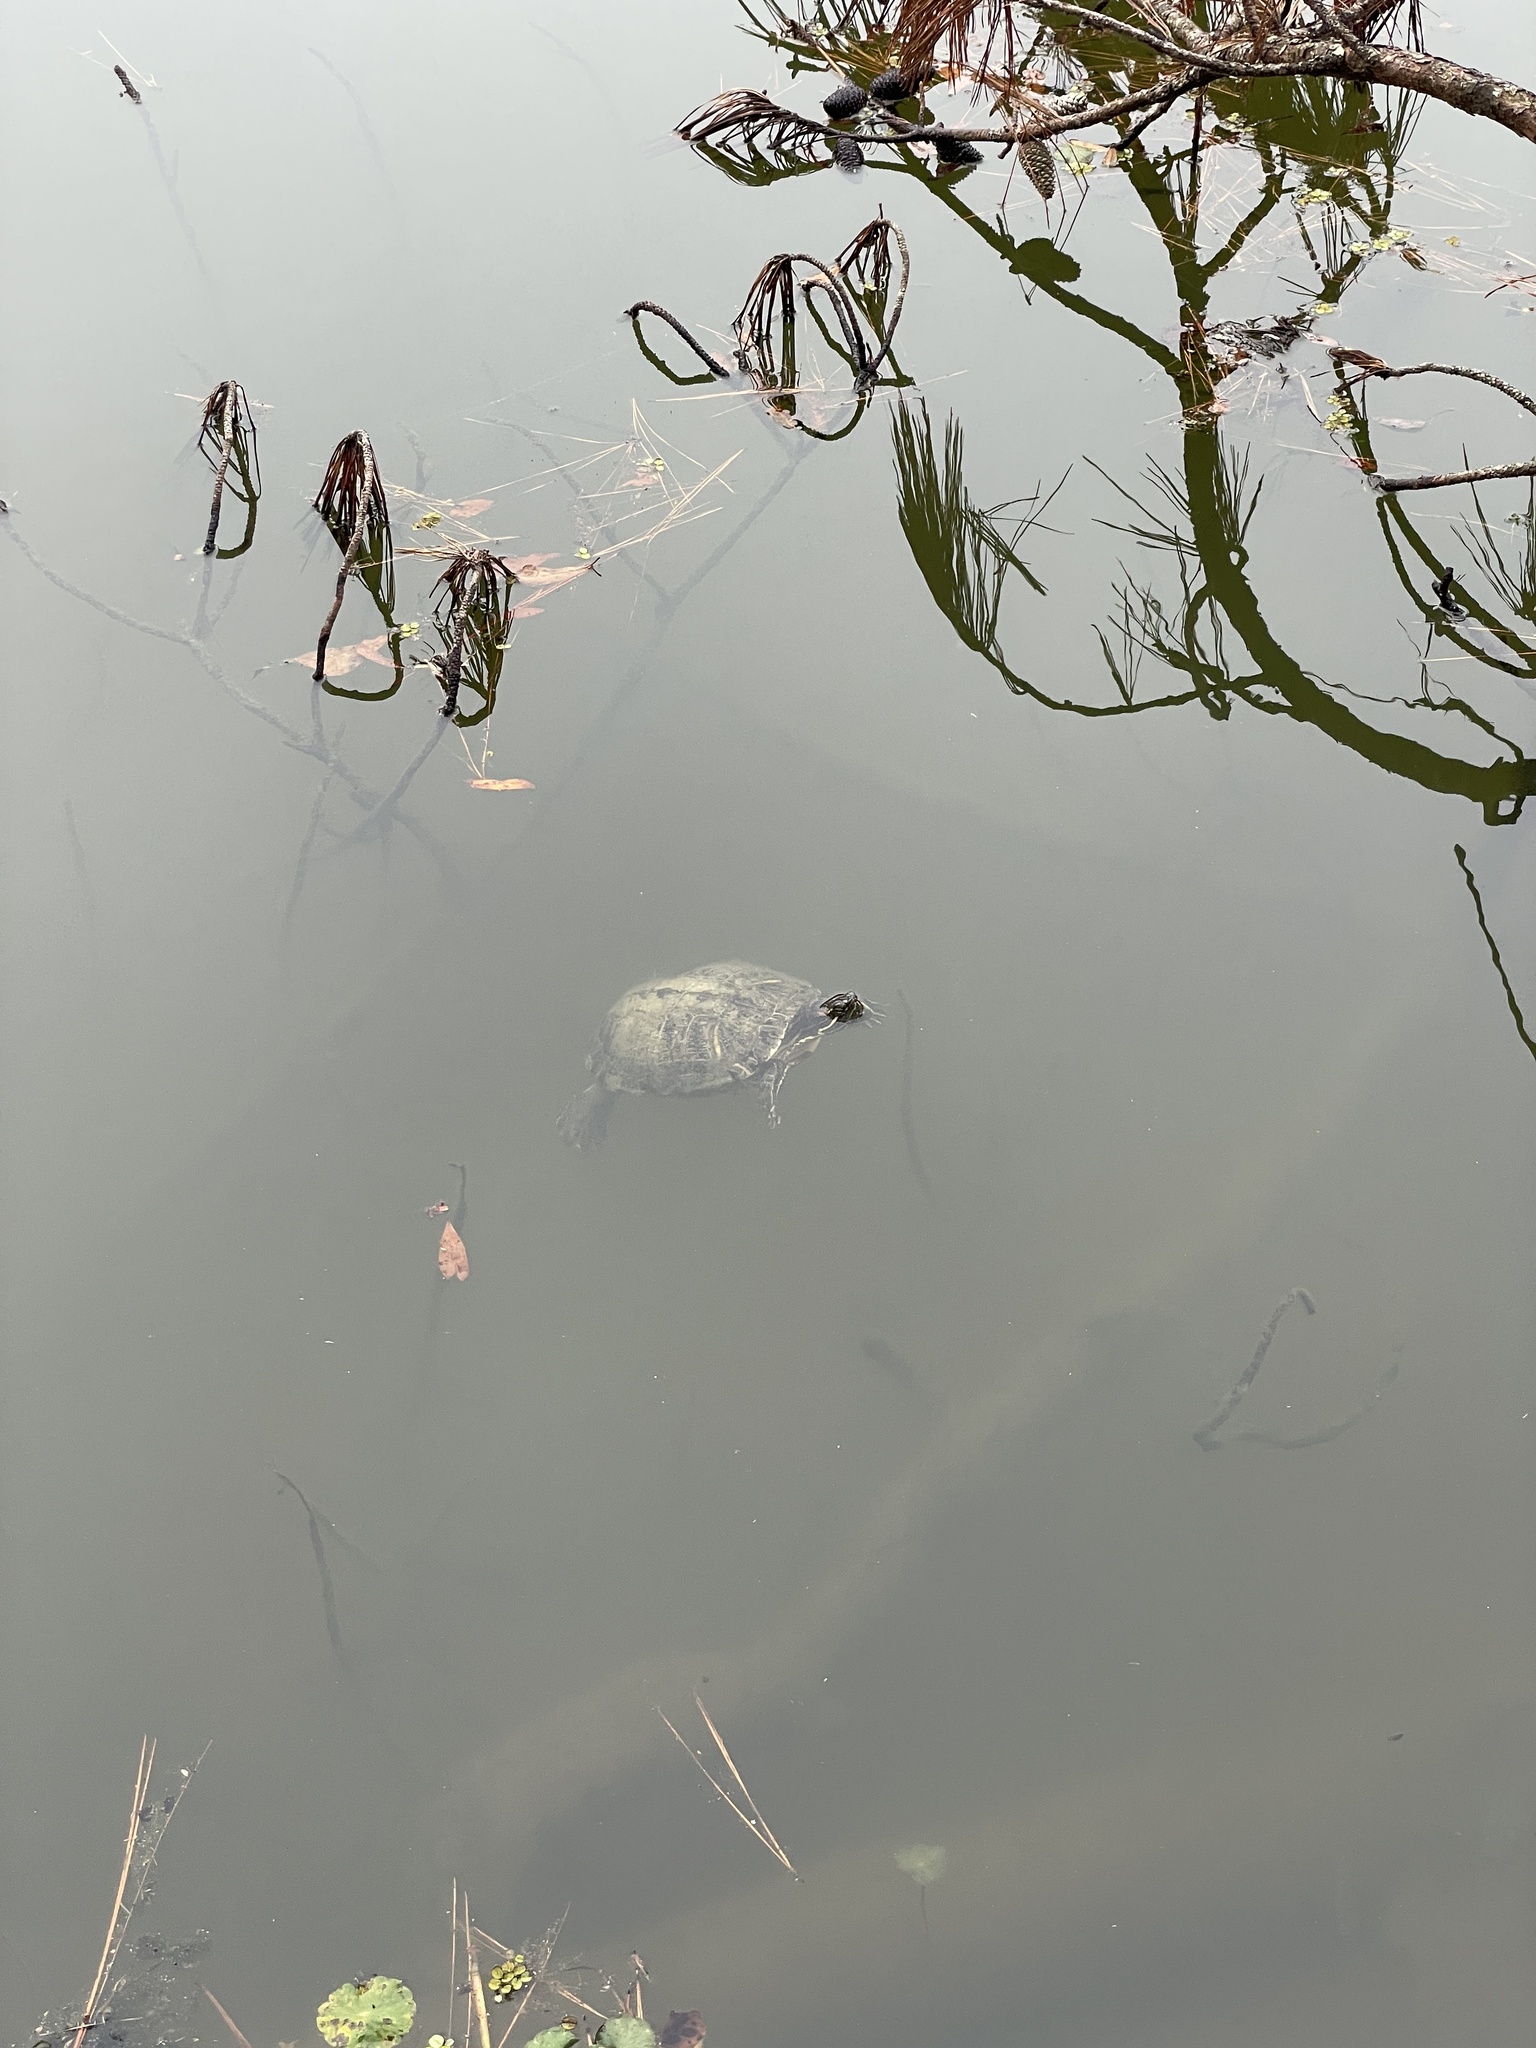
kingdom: Animalia
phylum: Chordata
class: Testudines
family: Emydidae
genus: Trachemys
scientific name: Trachemys scripta
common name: Slider
